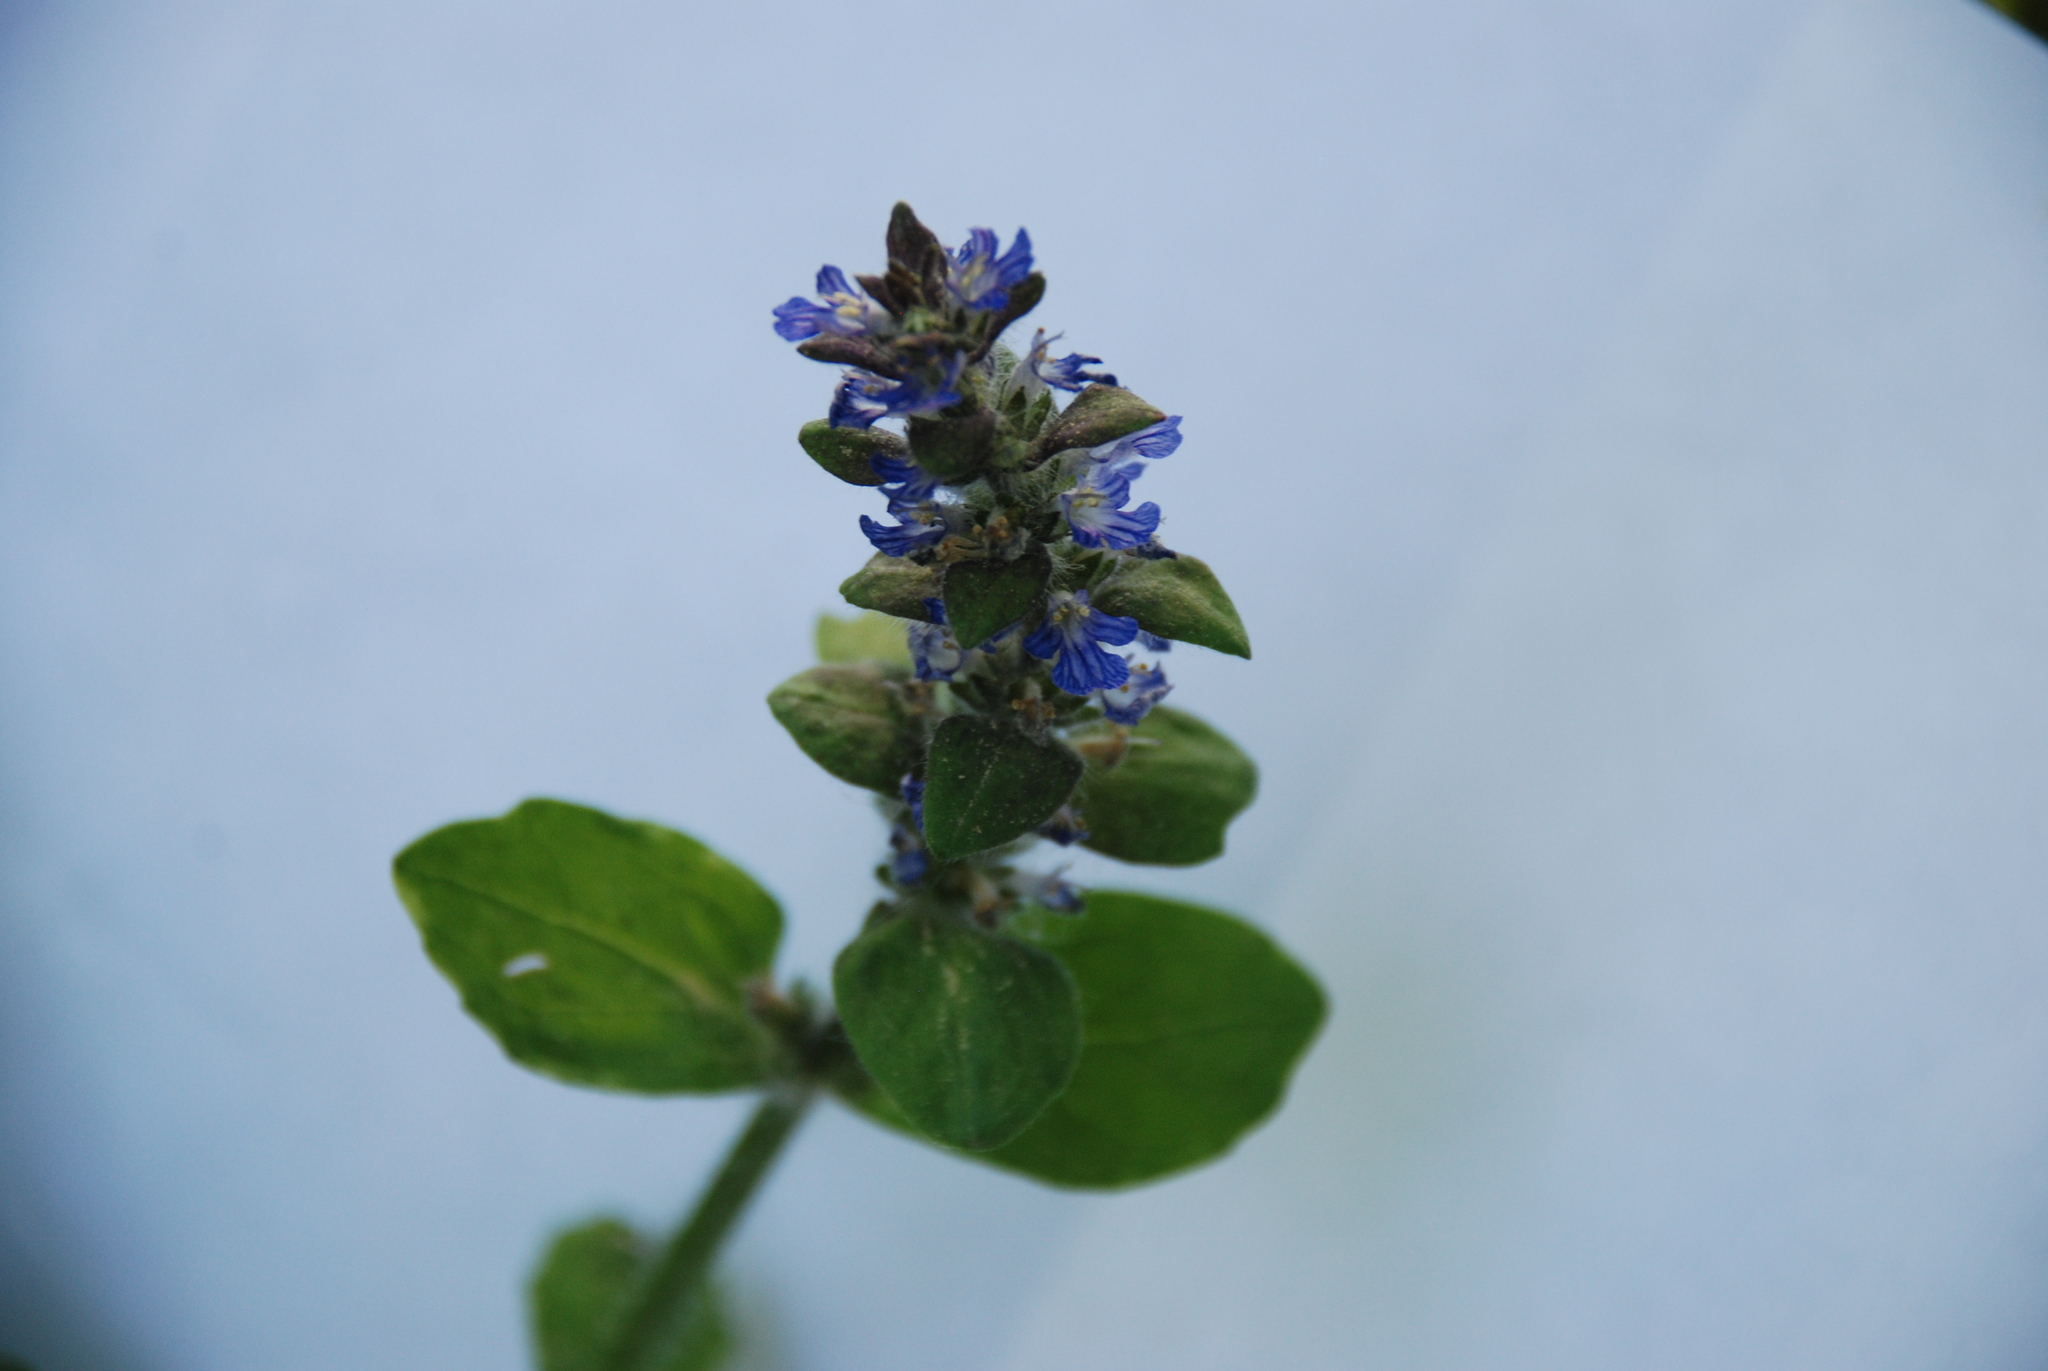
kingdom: Plantae
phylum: Tracheophyta
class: Magnoliopsida
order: Lamiales
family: Lamiaceae
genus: Ajuga
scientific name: Ajuga reptans
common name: Bugle
